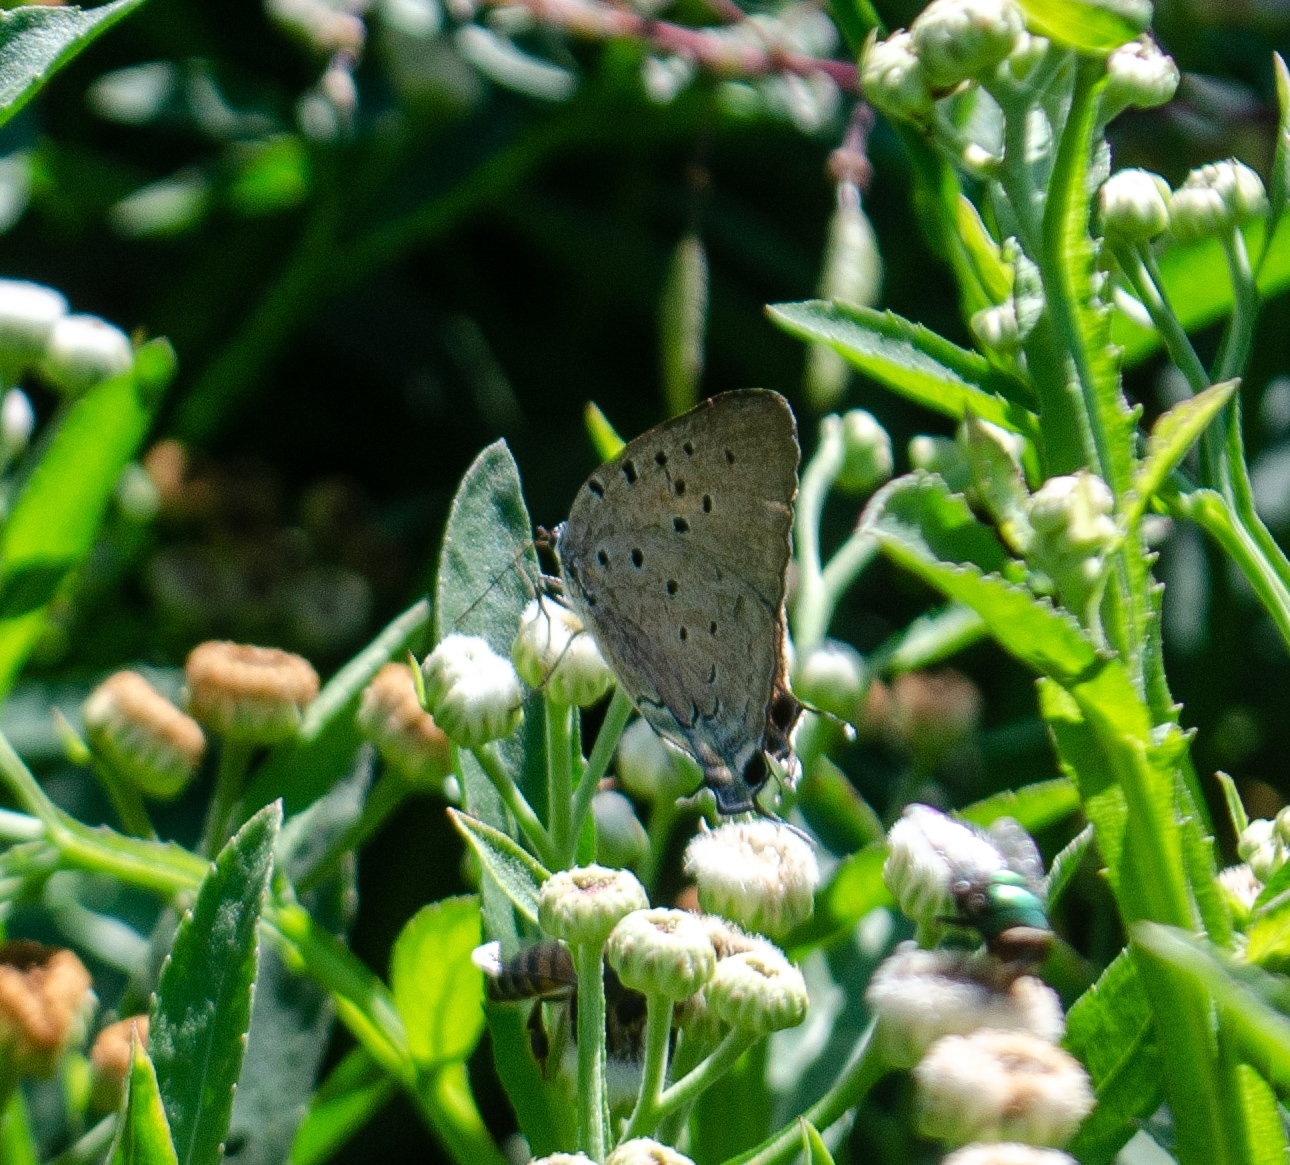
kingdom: Animalia
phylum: Arthropoda
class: Insecta
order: Lepidoptera
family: Lycaenidae
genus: Pseudolycaena
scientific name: Pseudolycaena marsyas
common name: Marsyas hairstreak
